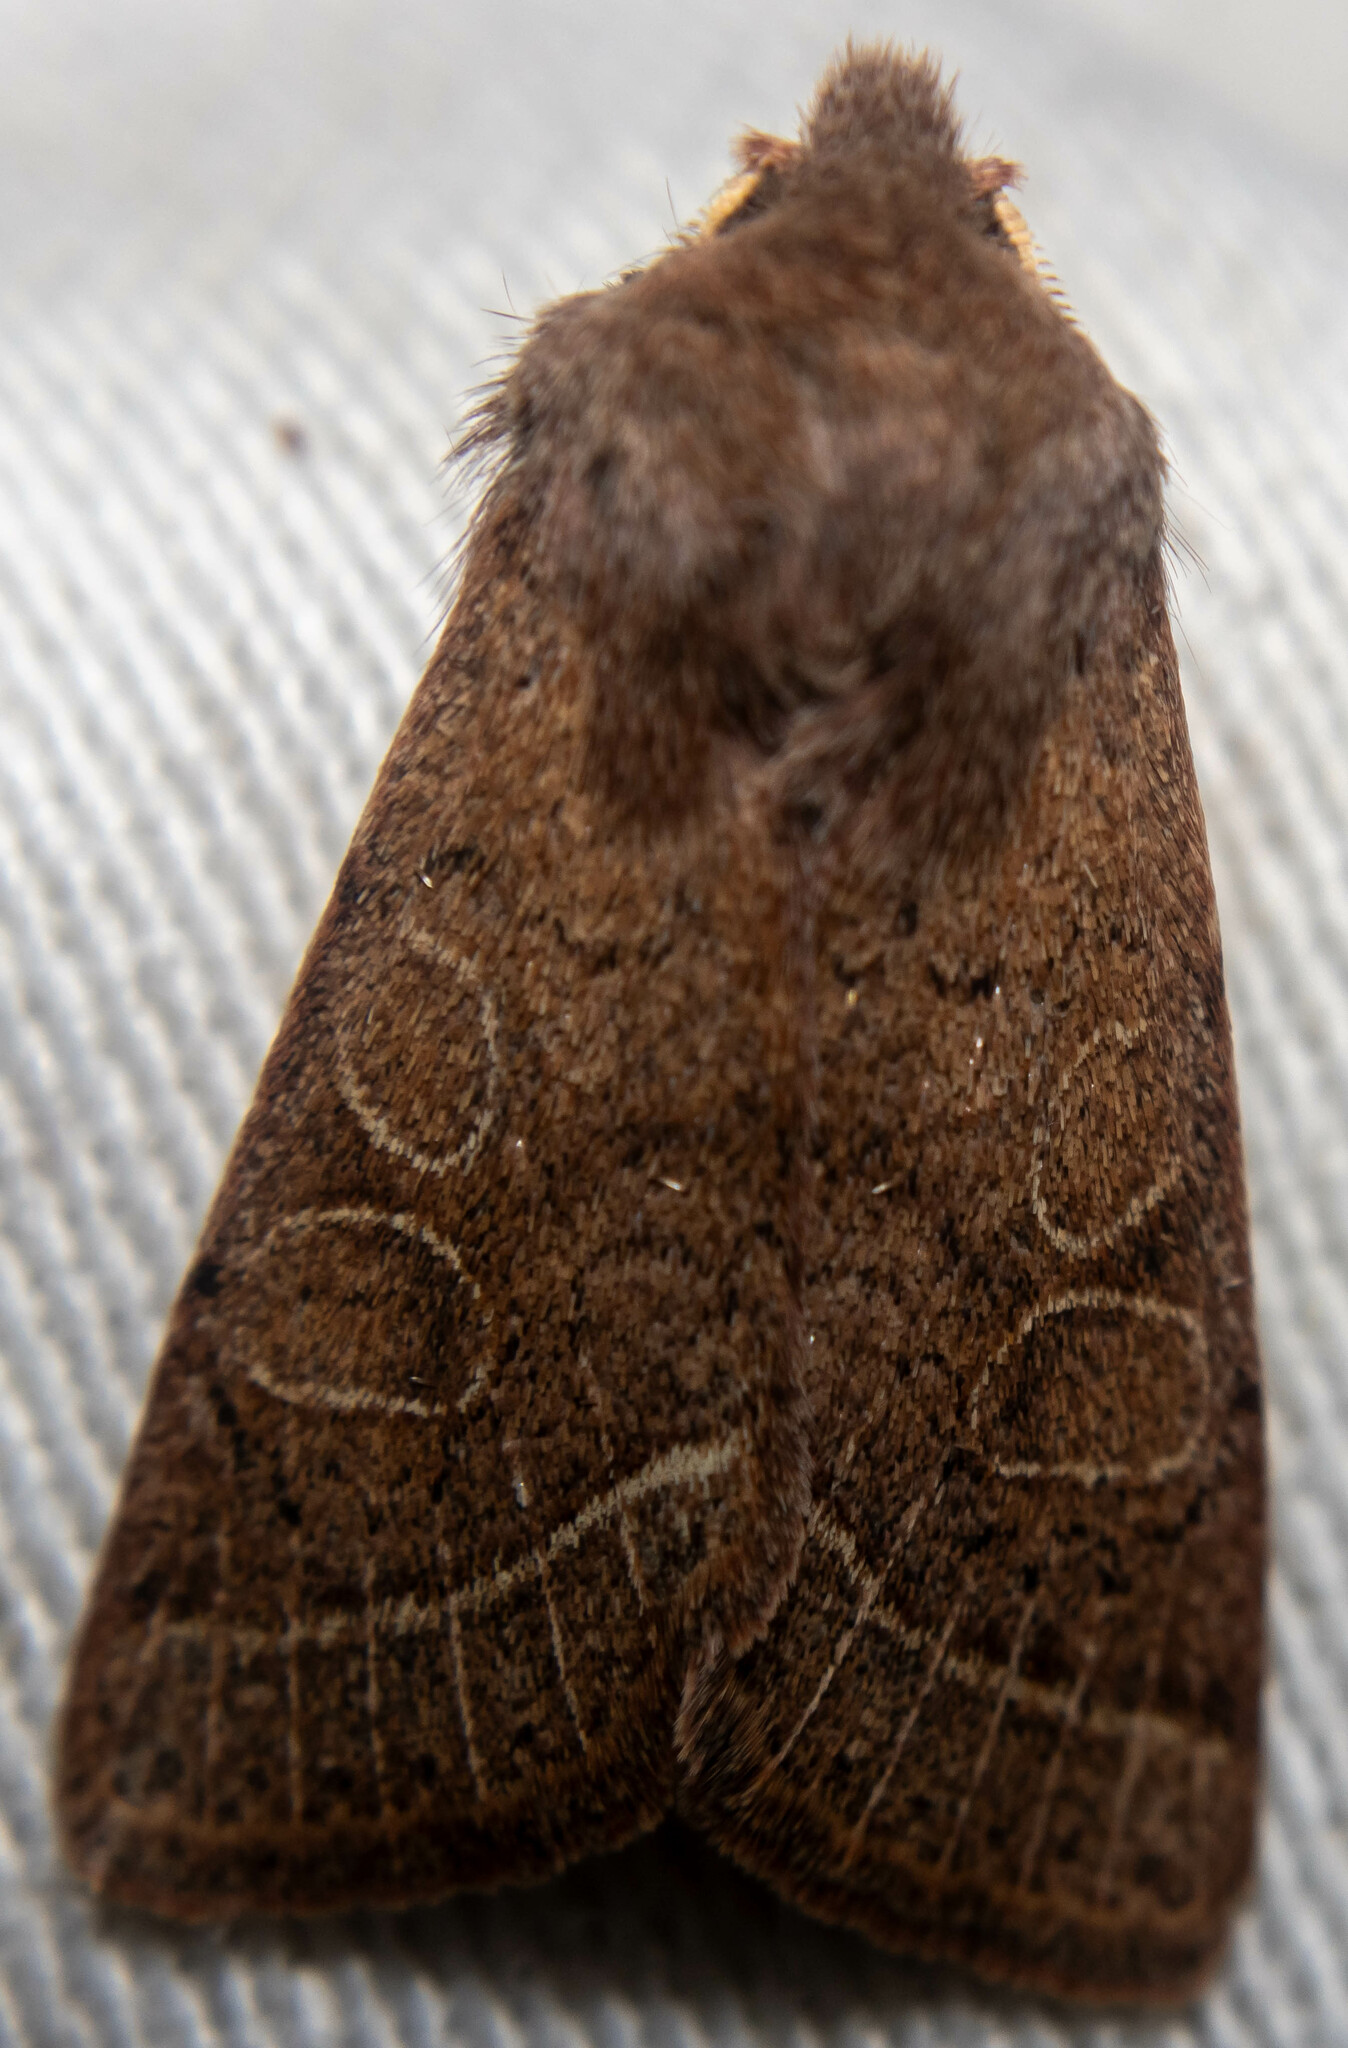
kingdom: Animalia
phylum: Arthropoda
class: Insecta
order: Lepidoptera
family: Noctuidae
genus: Orthosia
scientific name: Orthosia cerasi
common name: Common quaker
